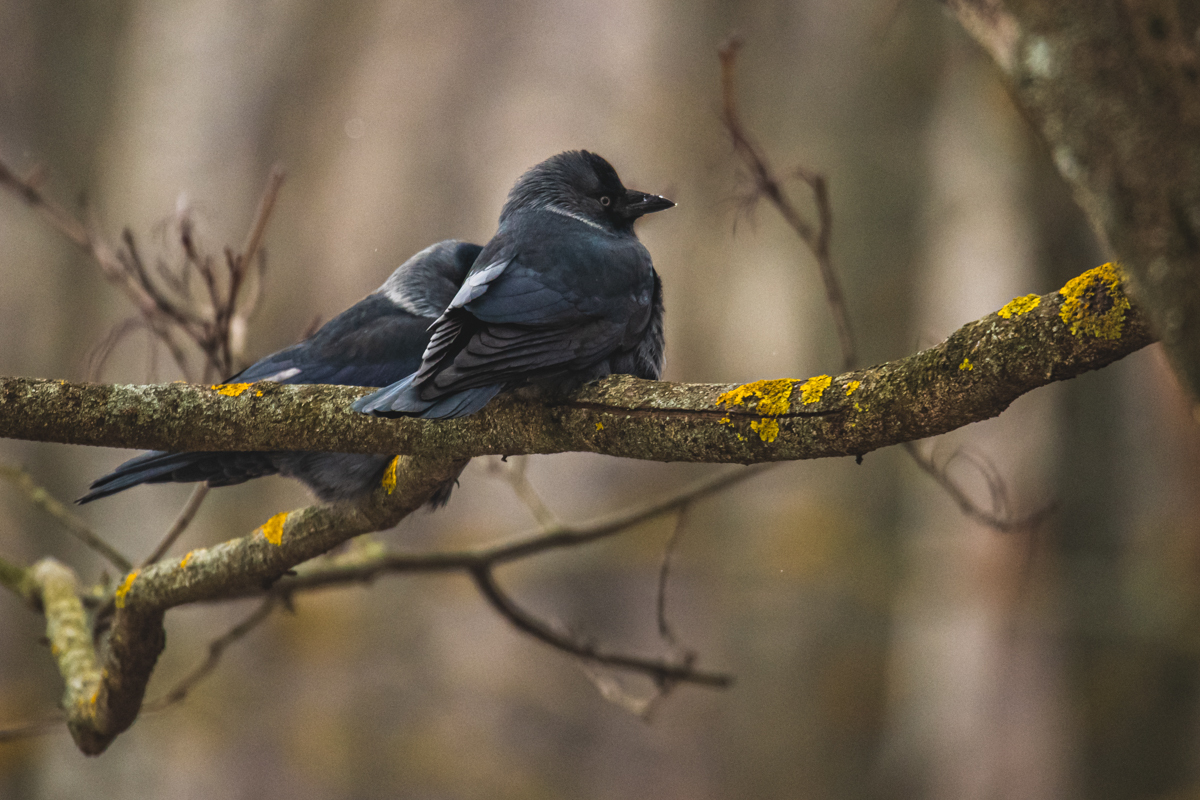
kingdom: Animalia
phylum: Chordata
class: Aves
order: Passeriformes
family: Corvidae
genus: Coloeus
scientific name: Coloeus monedula
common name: Western jackdaw
